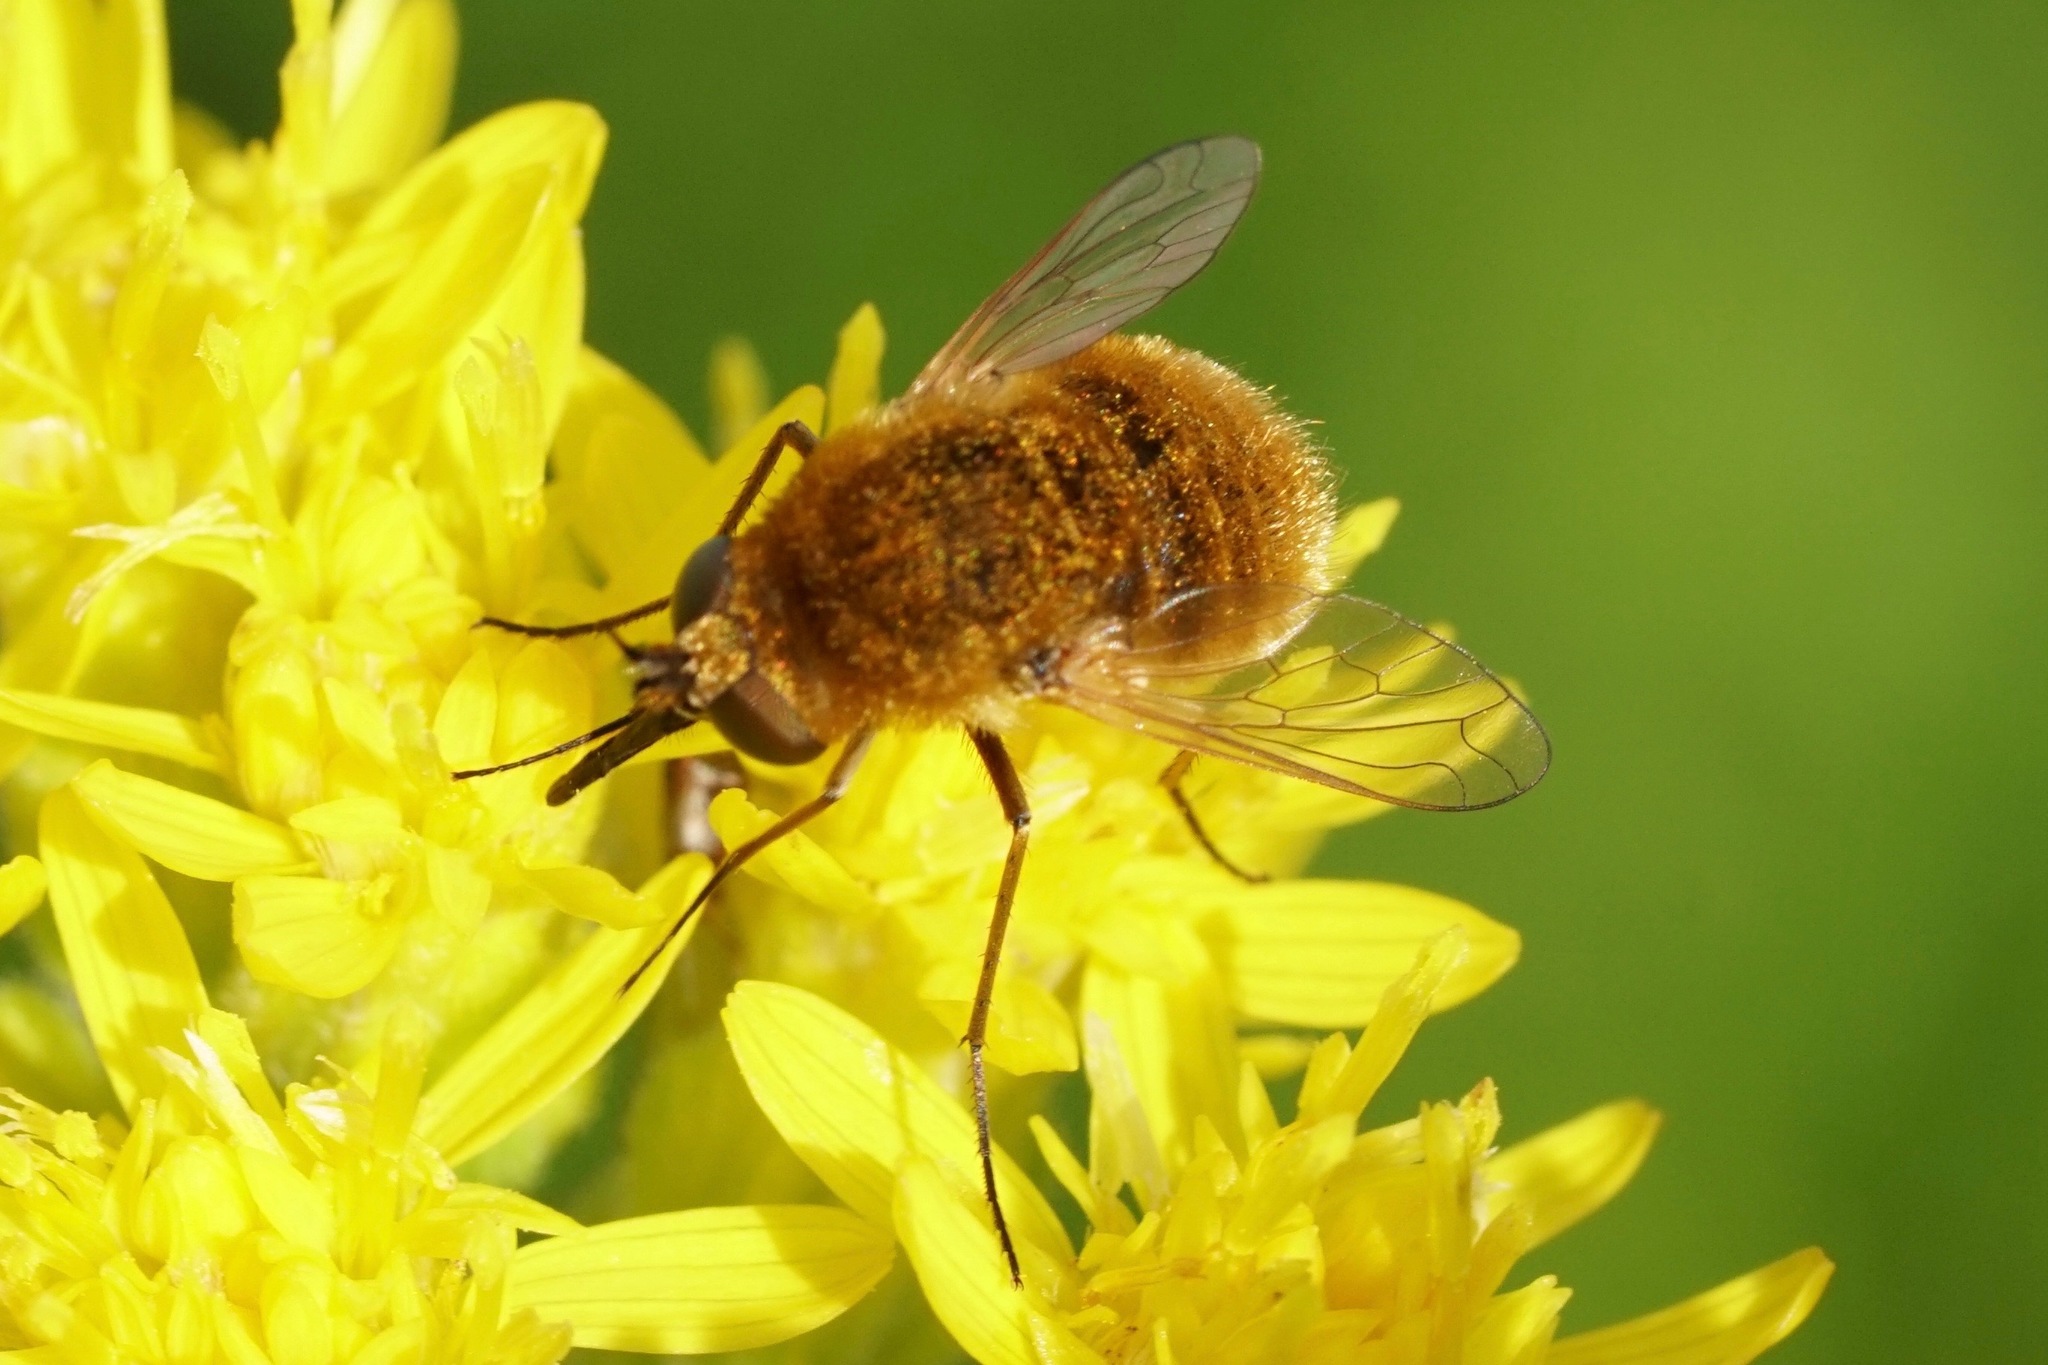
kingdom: Animalia
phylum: Arthropoda
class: Insecta
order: Diptera
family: Bombyliidae
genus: Sparnopolius
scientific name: Sparnopolius confusus
